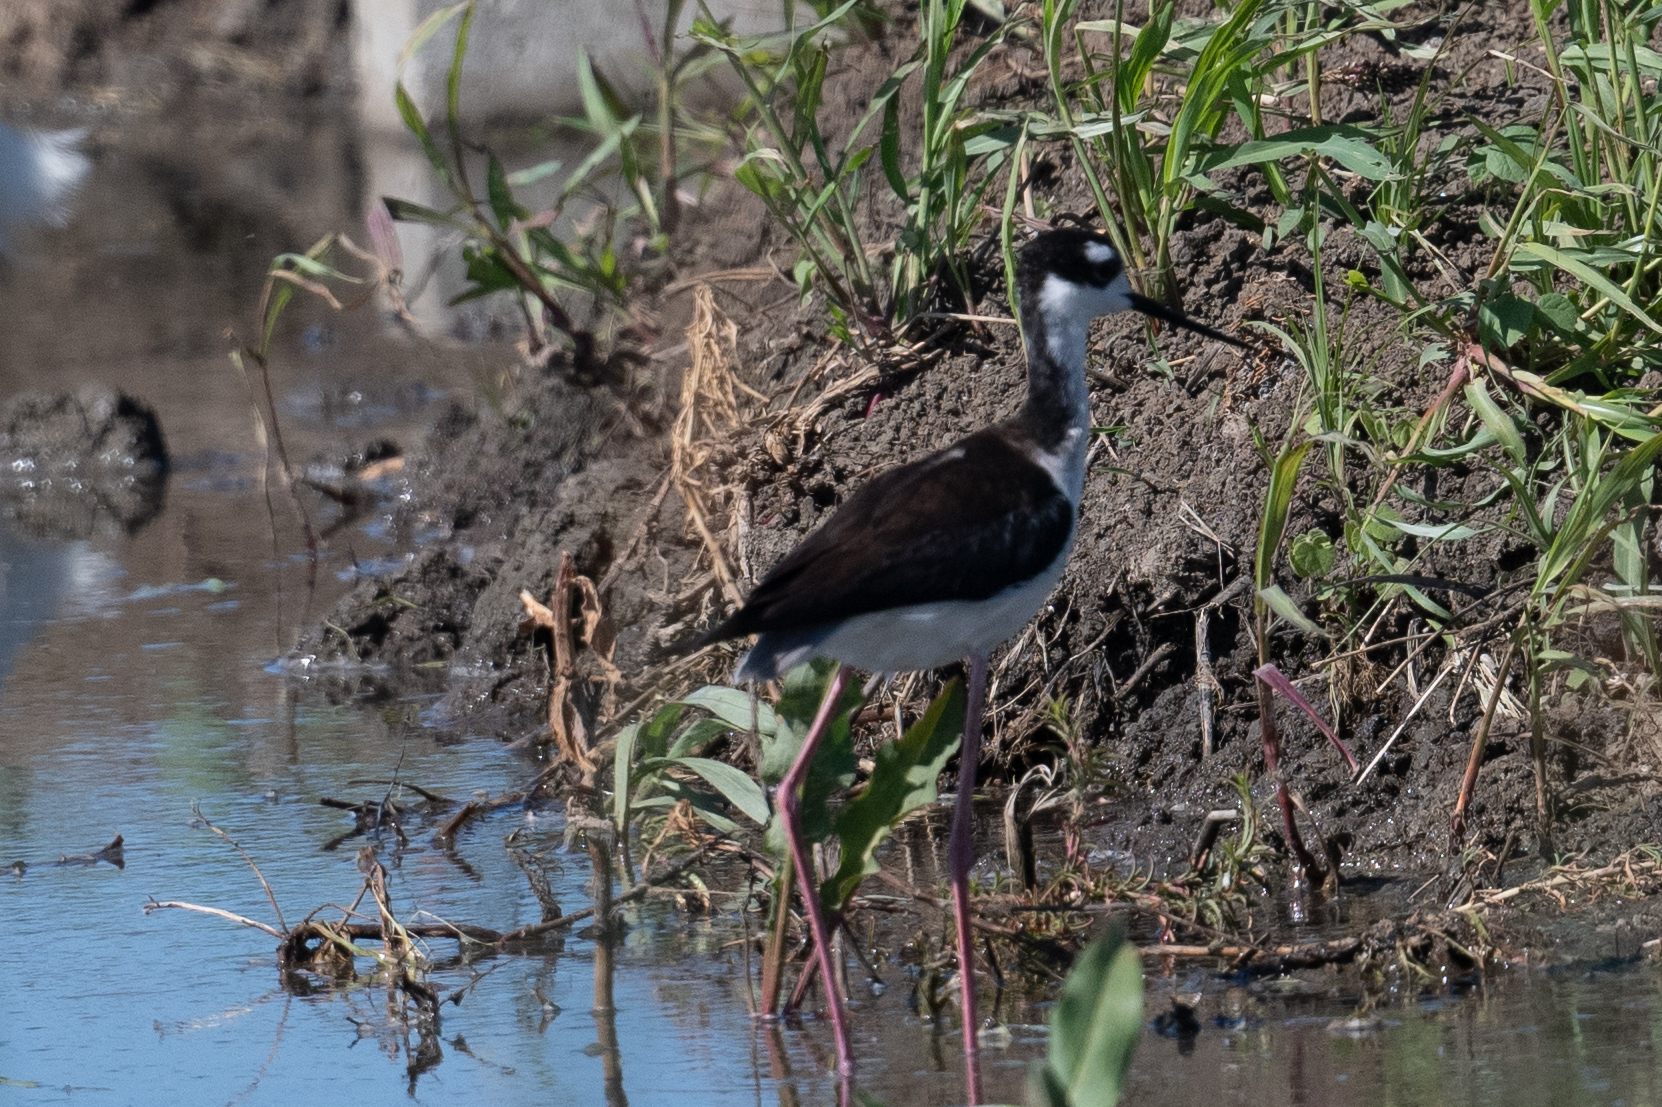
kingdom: Animalia
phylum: Chordata
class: Aves
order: Charadriiformes
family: Recurvirostridae
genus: Himantopus
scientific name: Himantopus mexicanus
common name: Black-necked stilt
